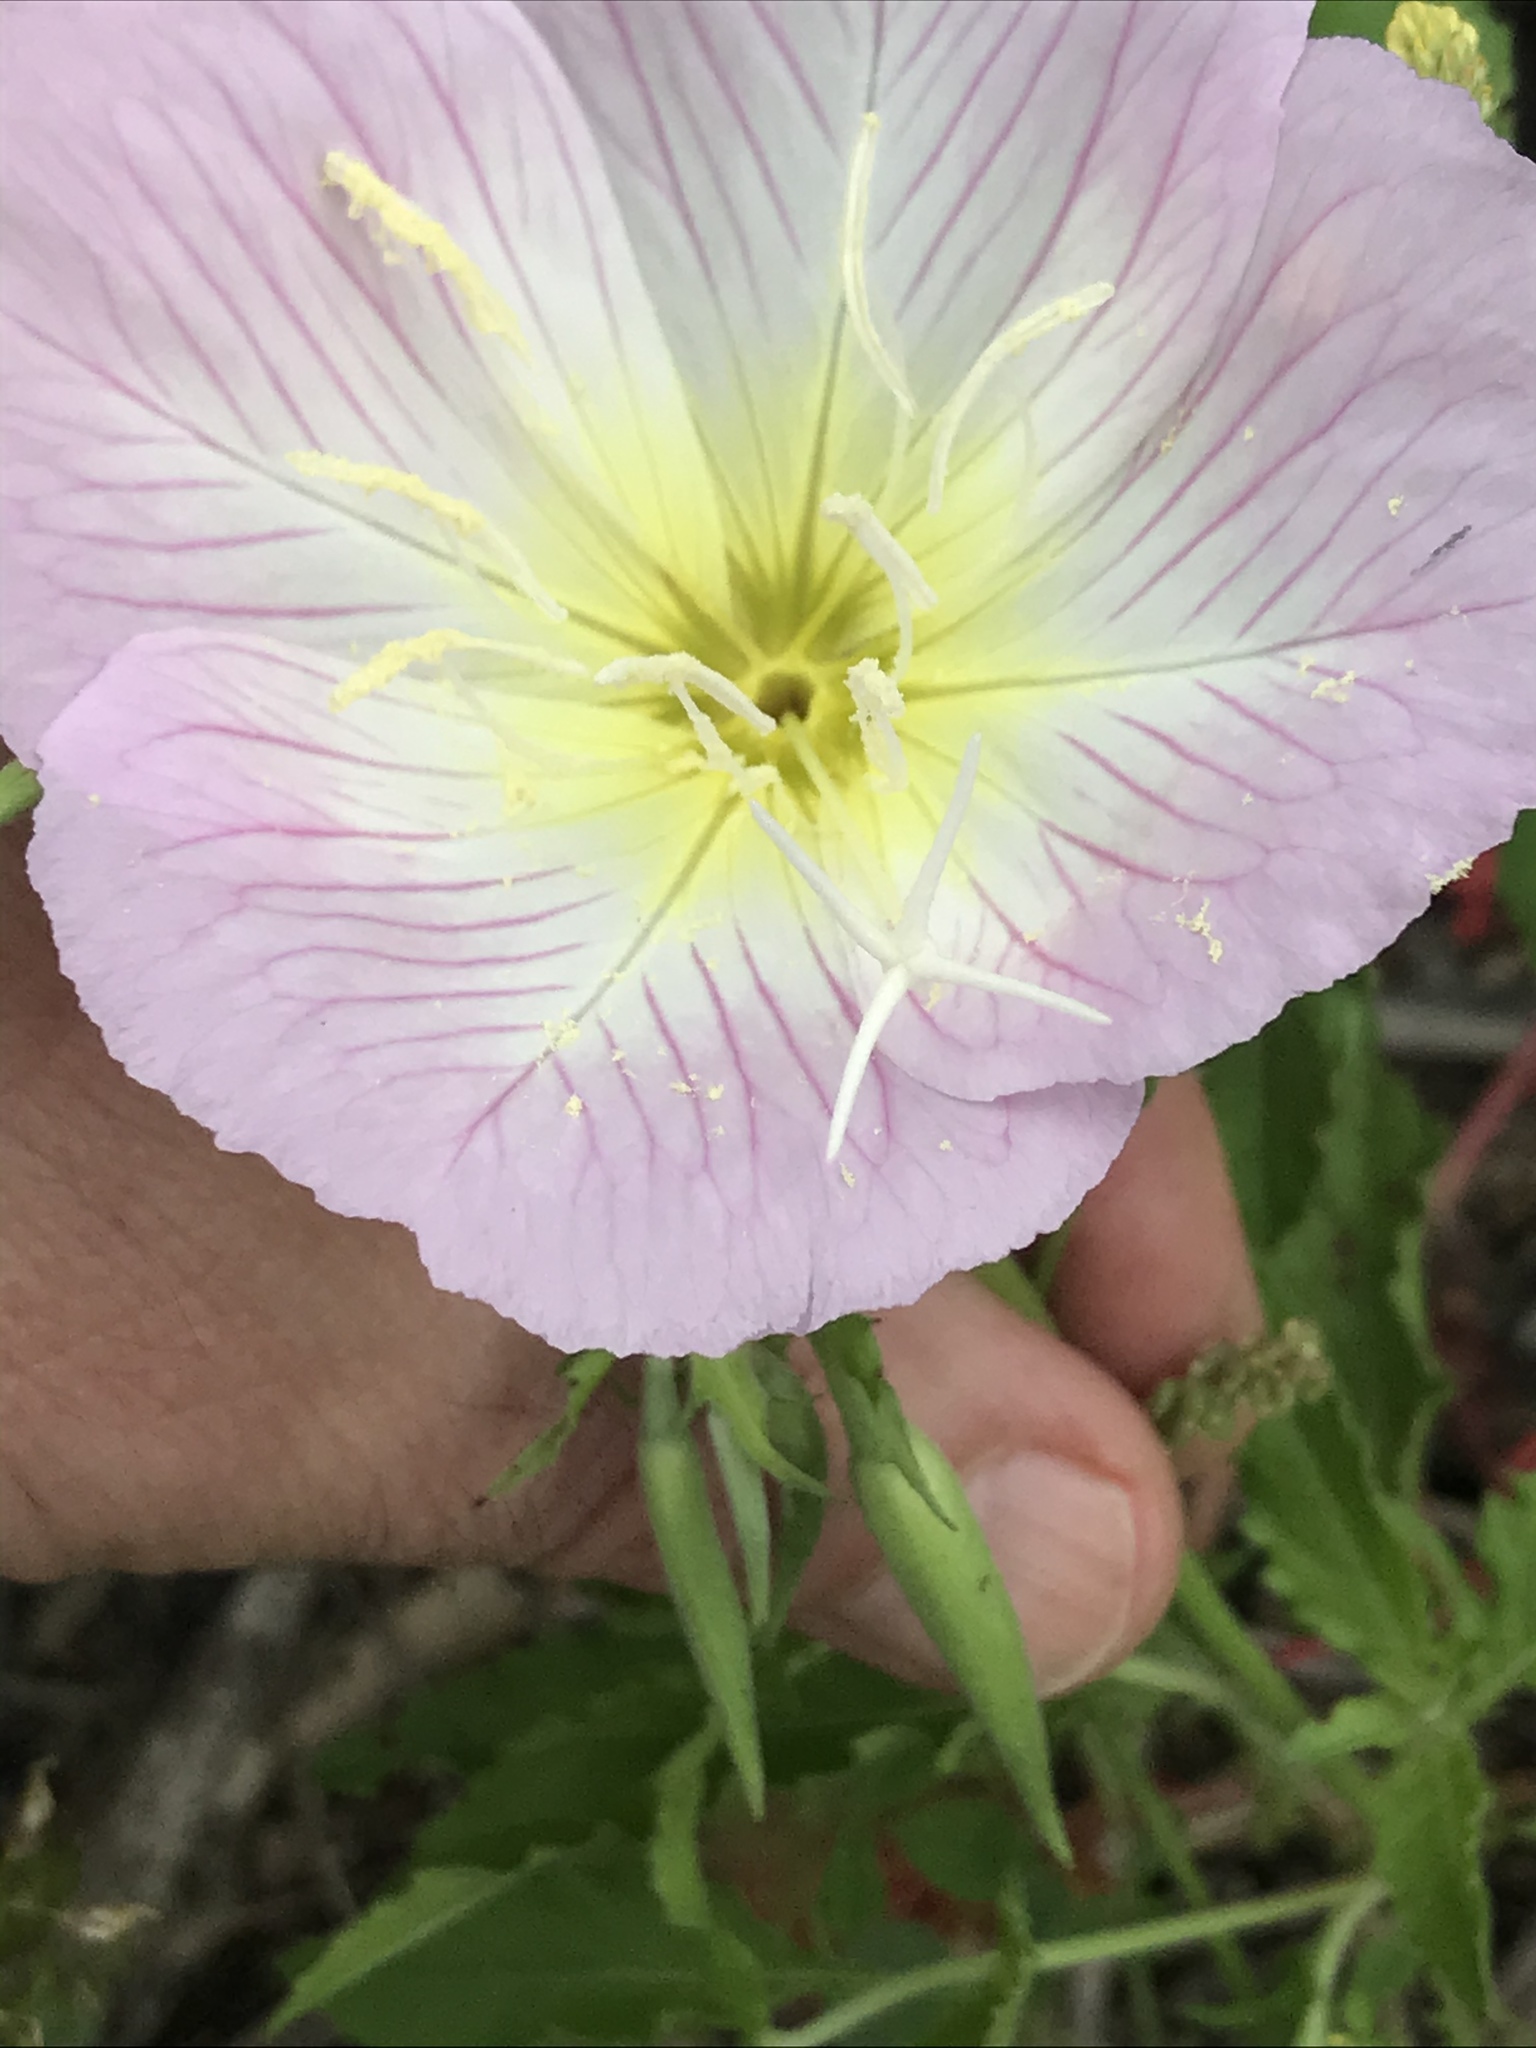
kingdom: Plantae
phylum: Tracheophyta
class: Magnoliopsida
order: Myrtales
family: Onagraceae
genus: Oenothera
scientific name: Oenothera speciosa
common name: White evening-primrose
